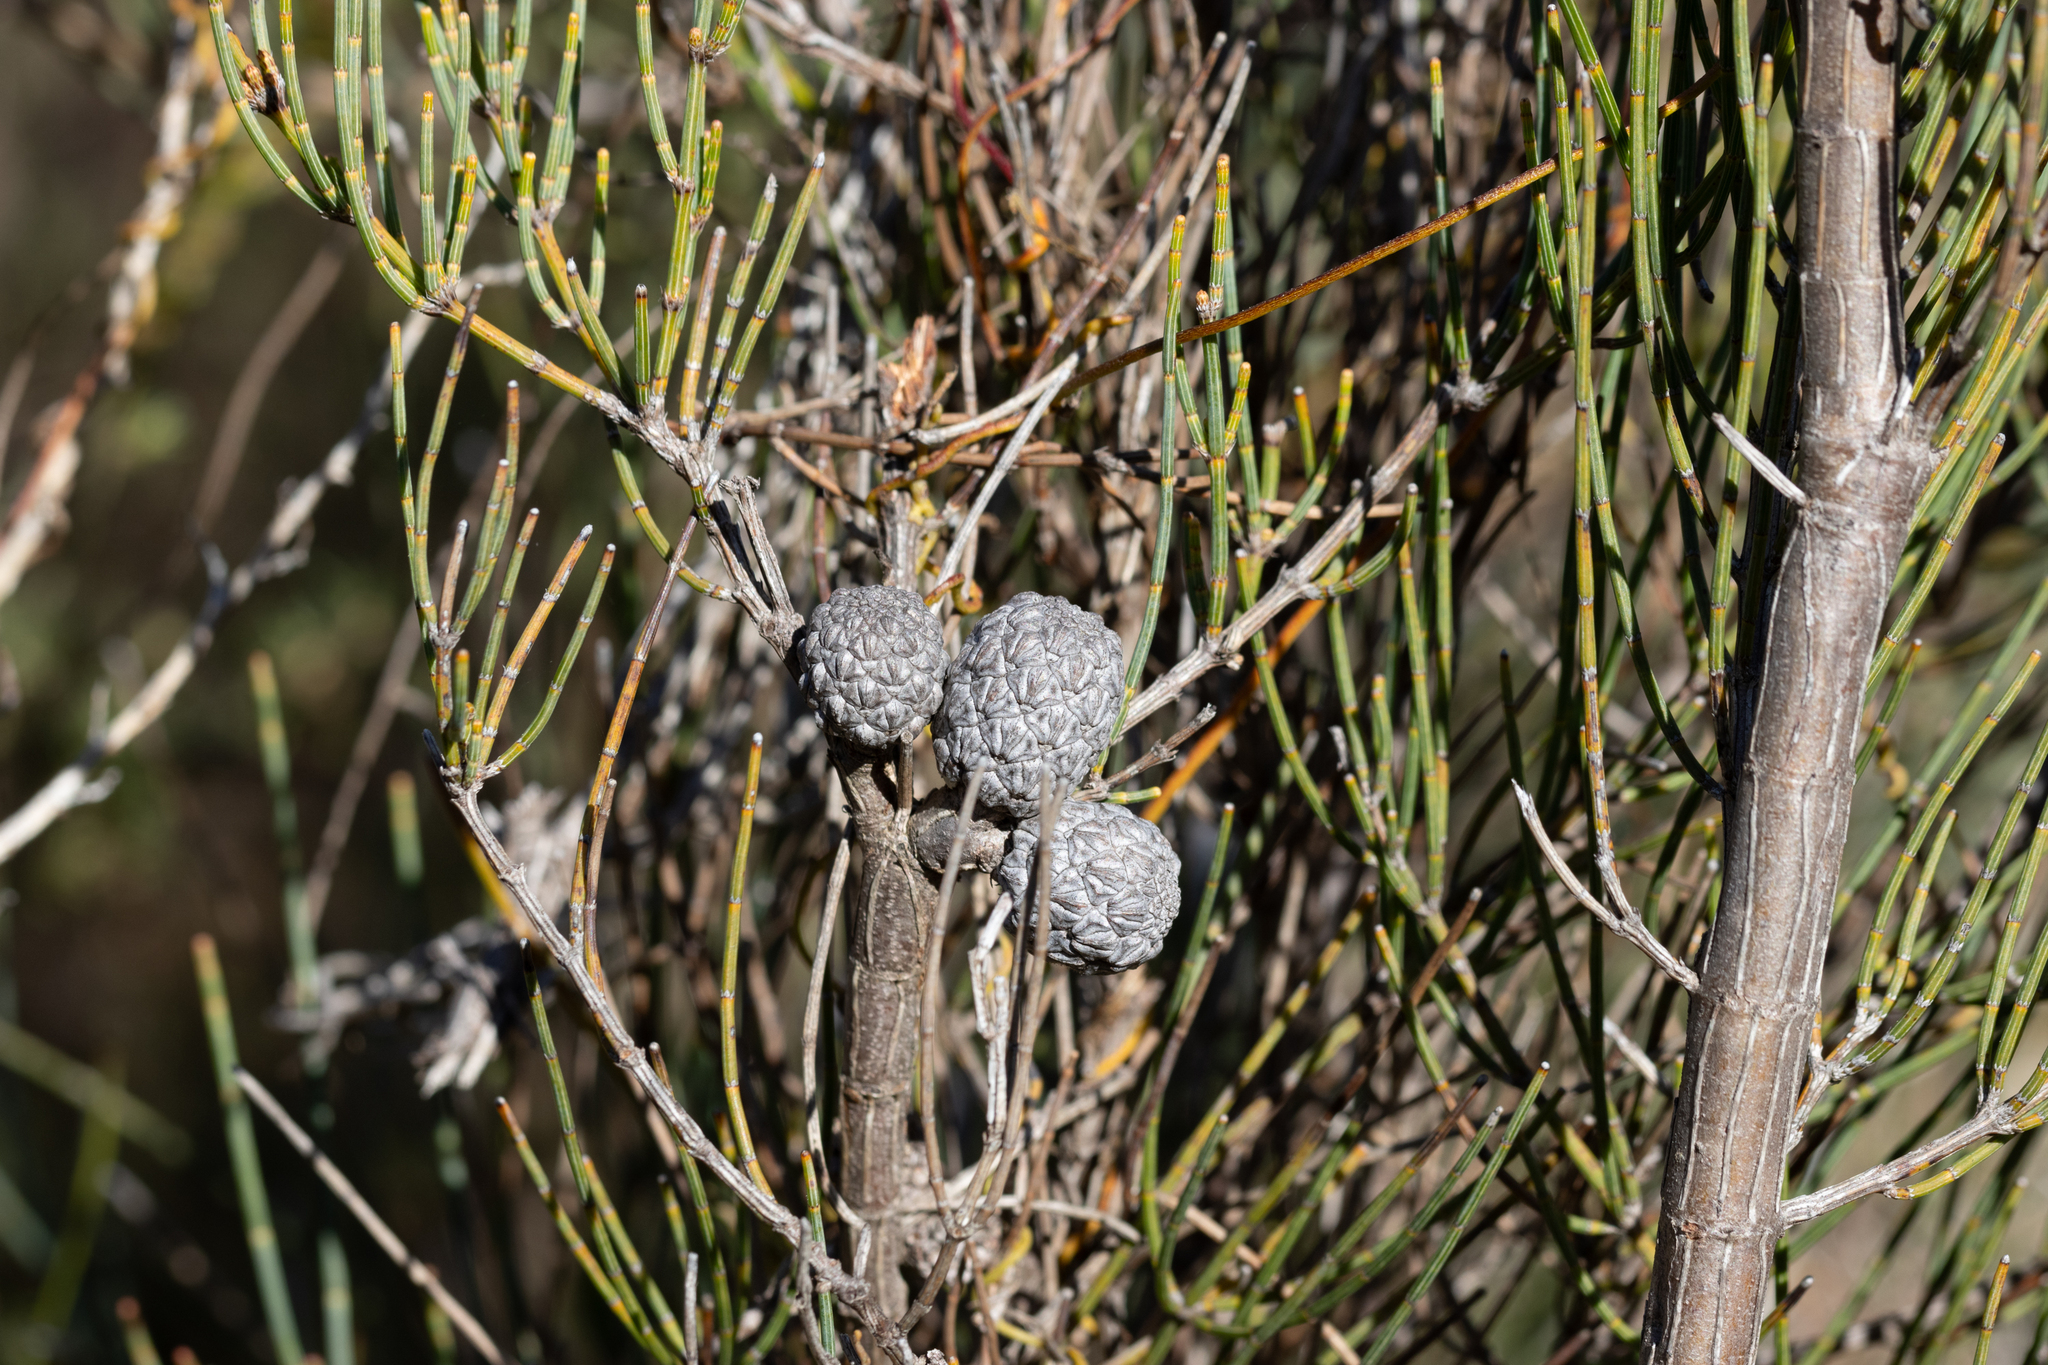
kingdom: Plantae
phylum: Tracheophyta
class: Magnoliopsida
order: Fagales
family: Casuarinaceae
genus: Allocasuarina
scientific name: Allocasuarina muelleriana
